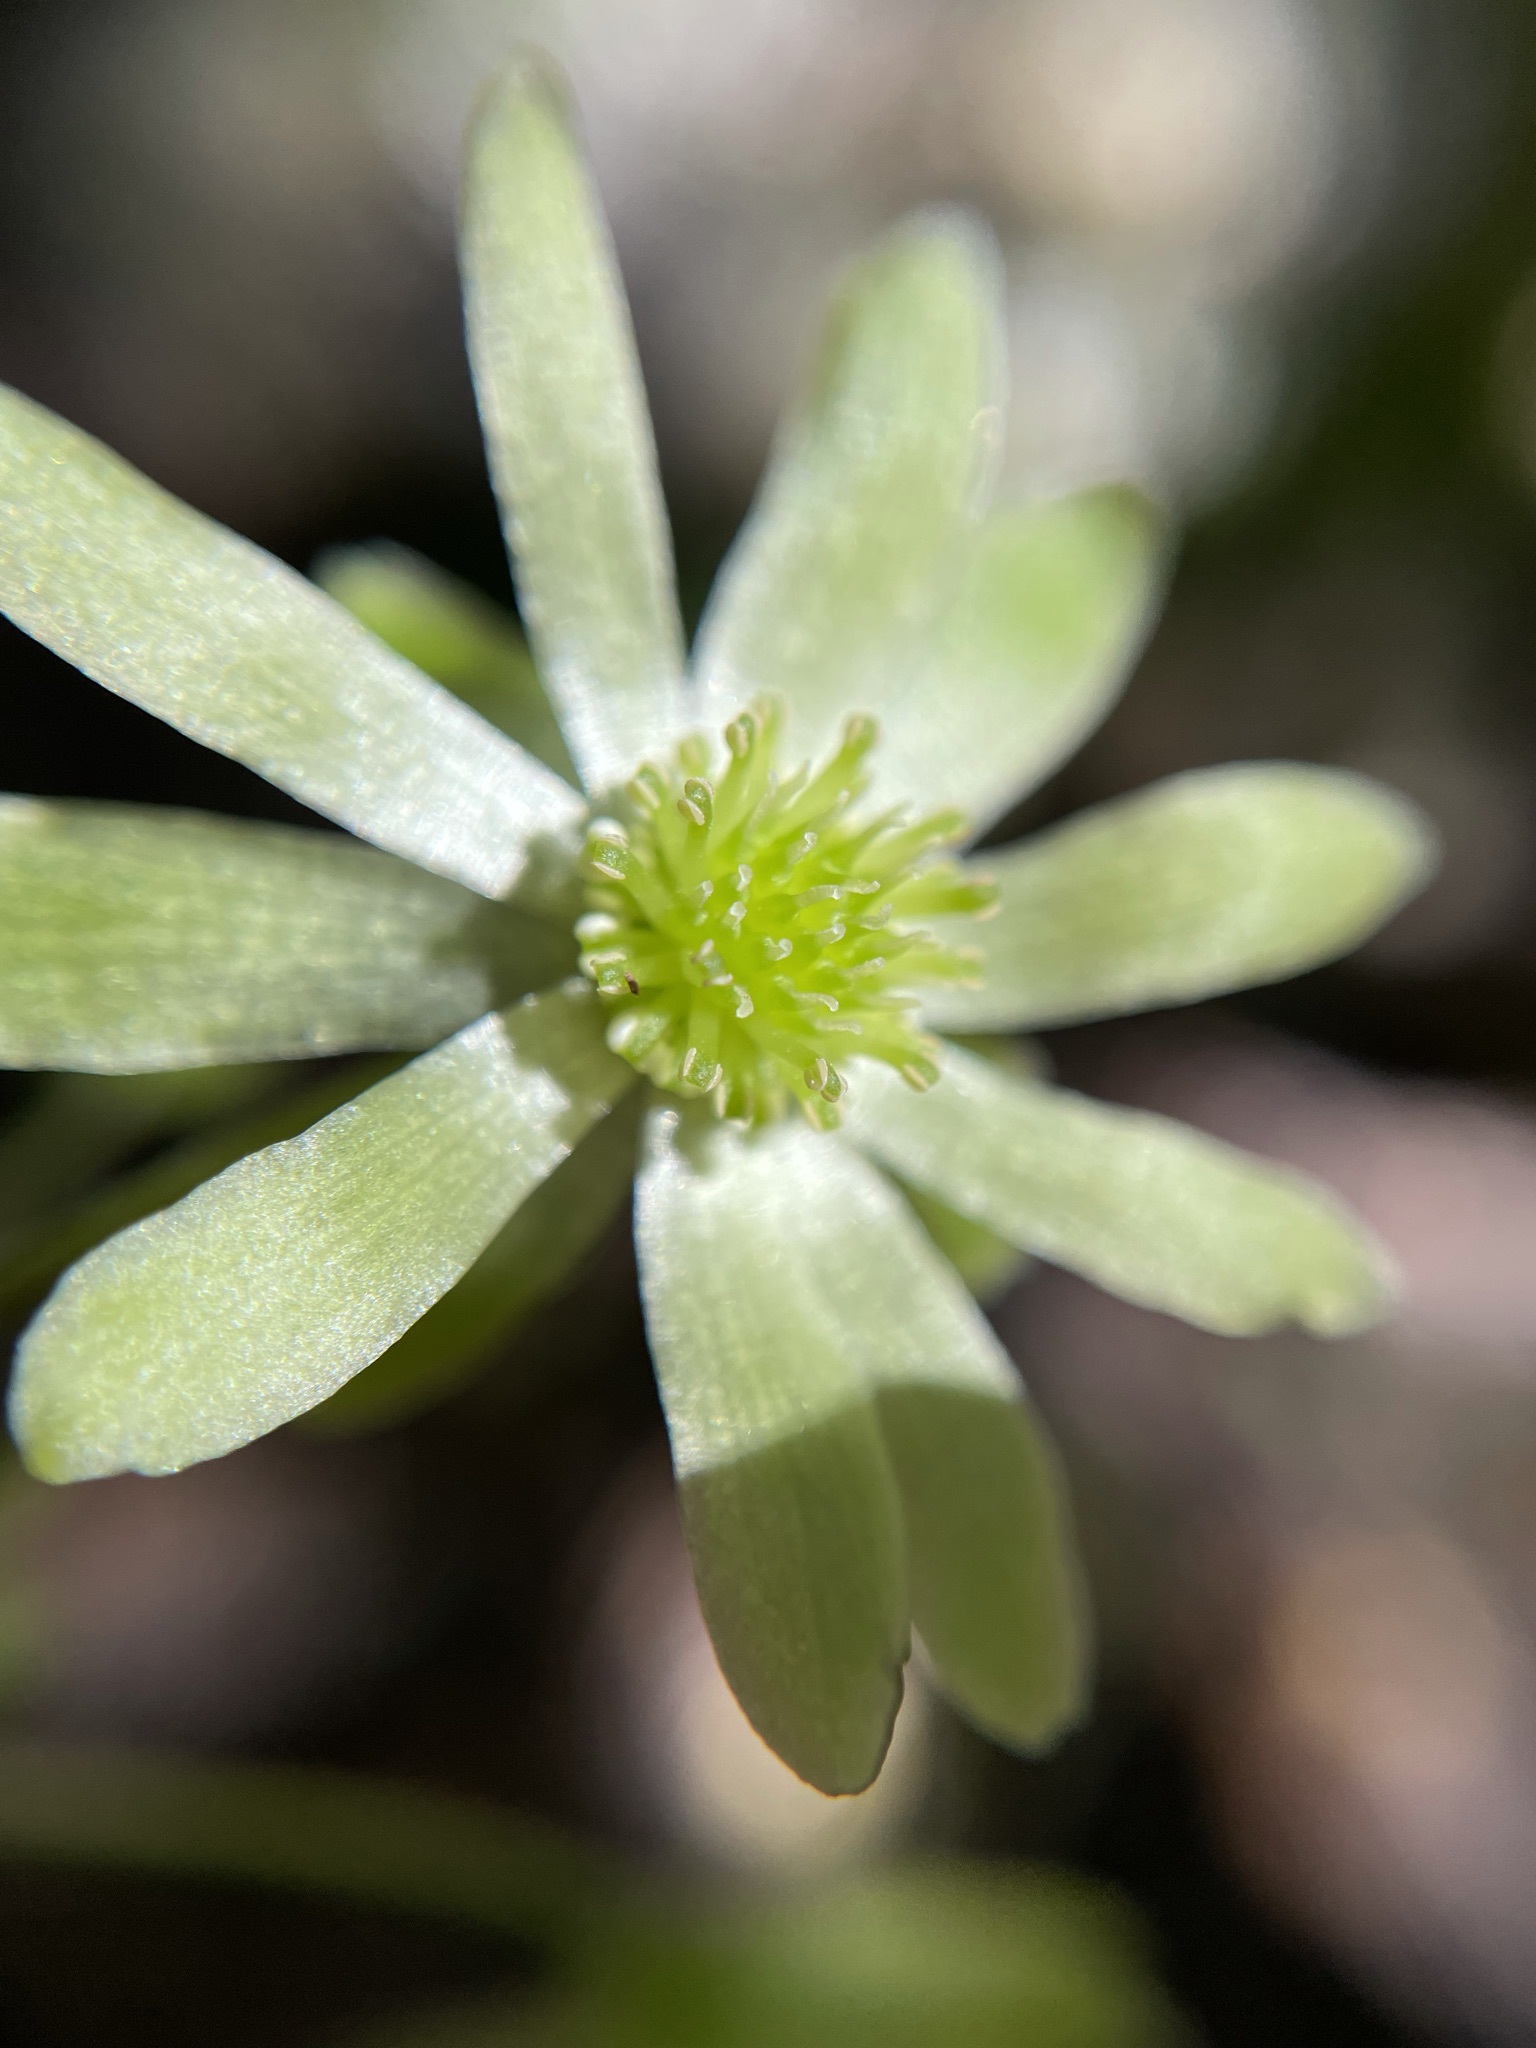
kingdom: Plantae
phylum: Tracheophyta
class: Magnoliopsida
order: Ranunculales
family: Ranunculaceae
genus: Knowltonia
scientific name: Knowltonia vesicatoria
